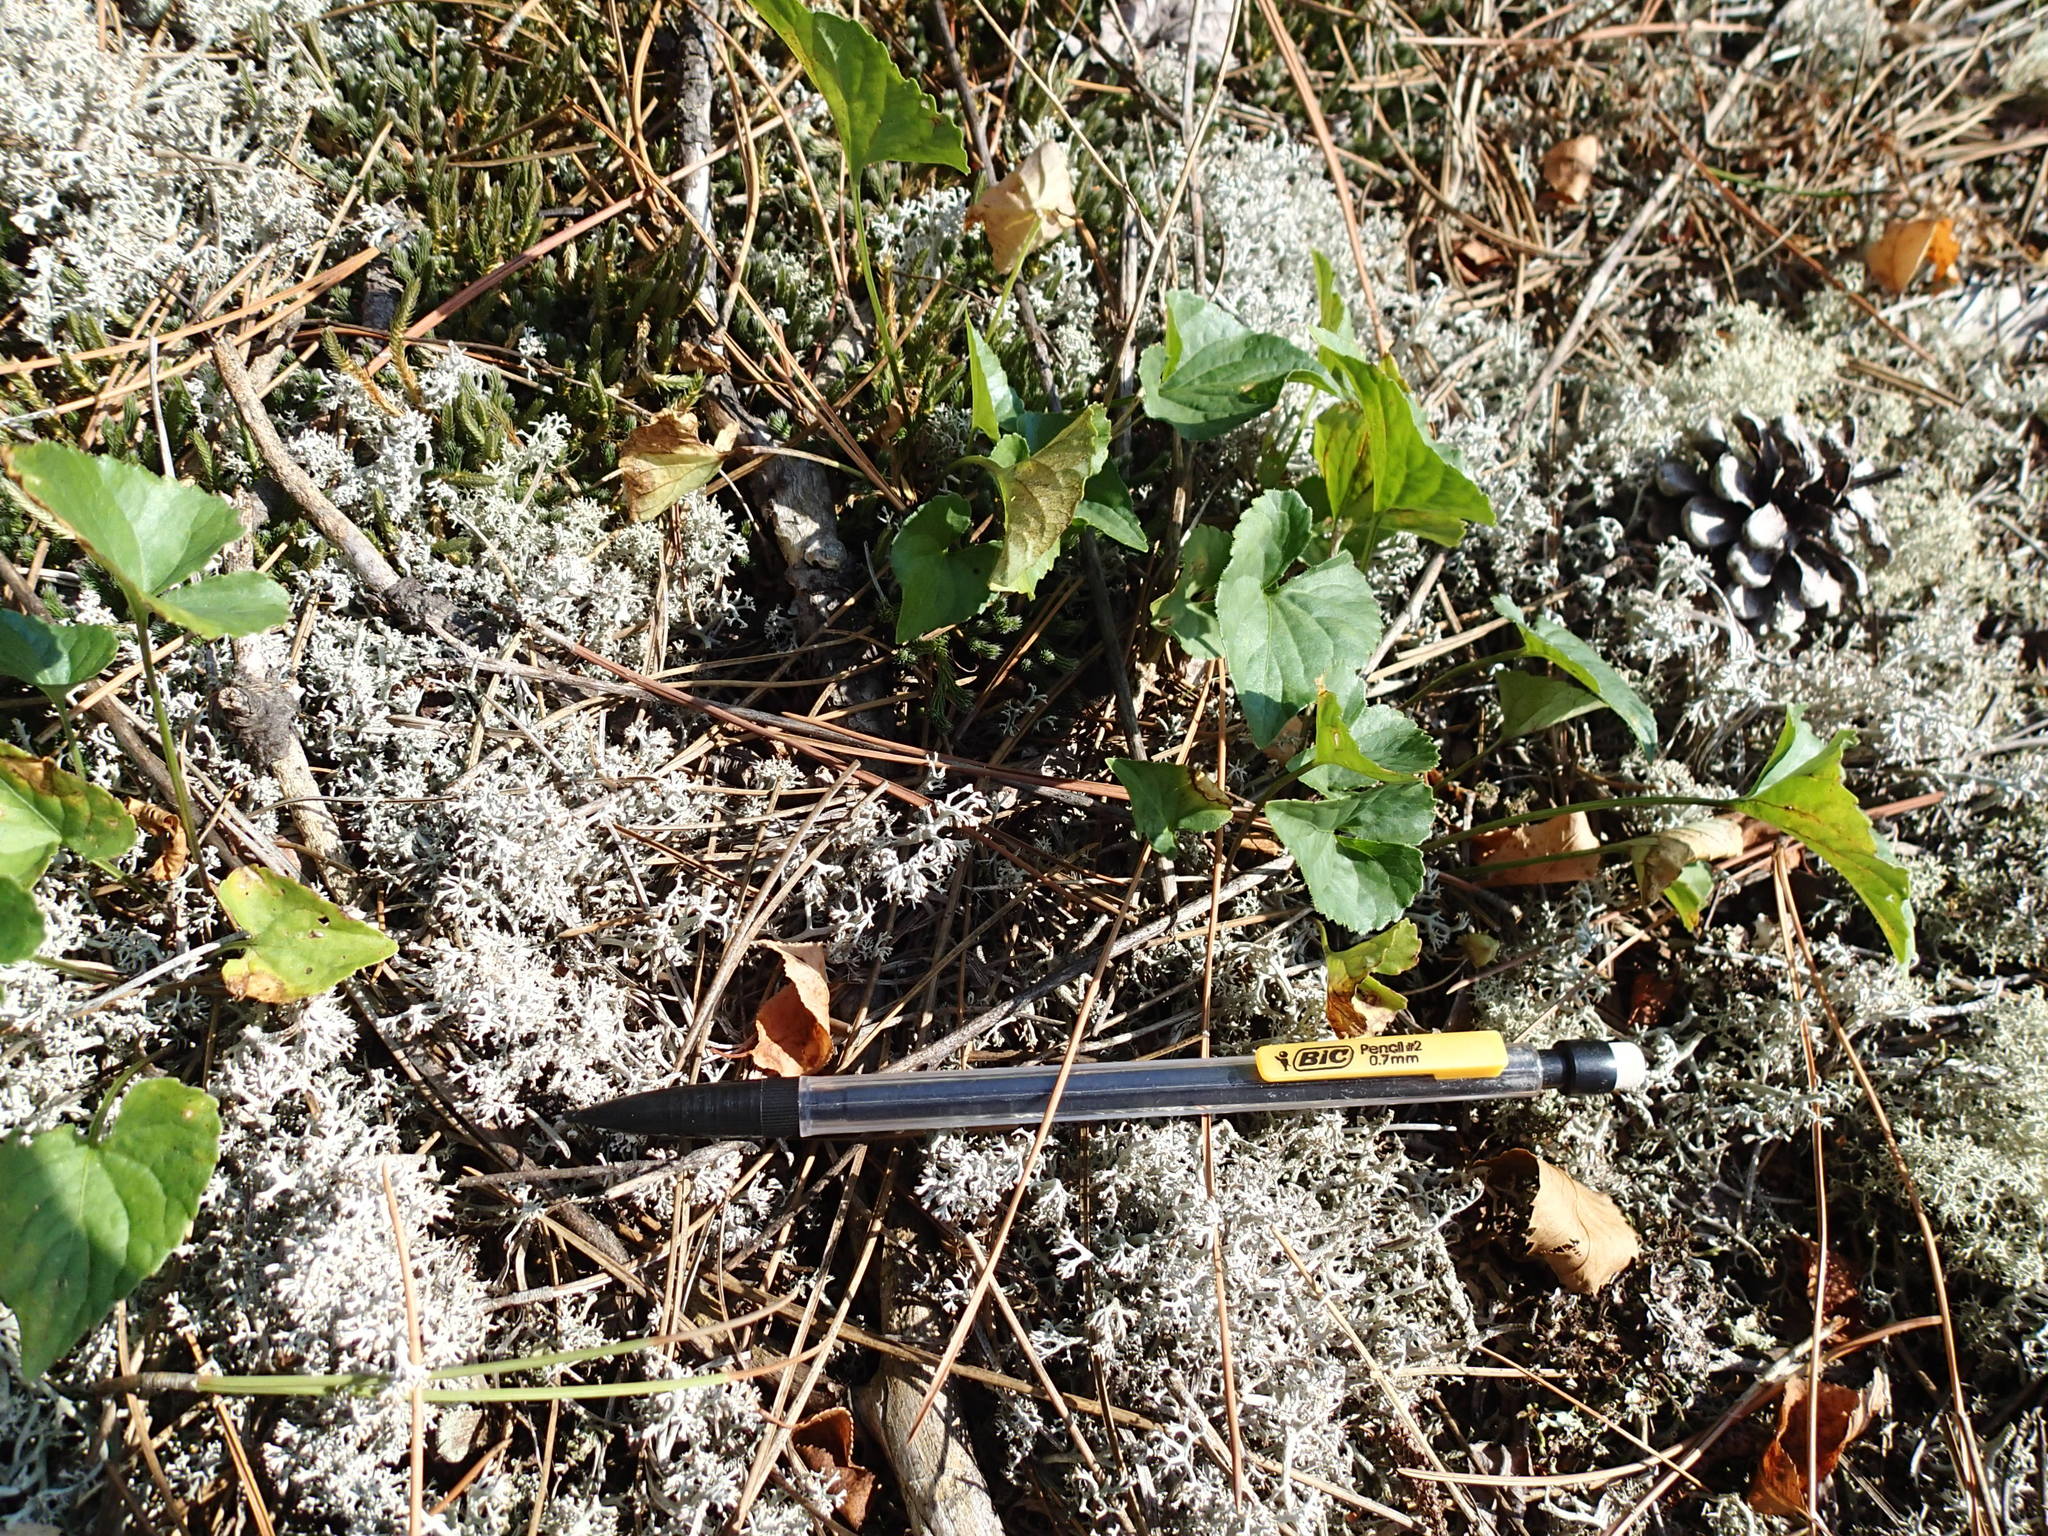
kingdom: Plantae
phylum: Tracheophyta
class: Magnoliopsida
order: Malpighiales
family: Violaceae
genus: Viola
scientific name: Viola novae-angliae
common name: New england blue violet
